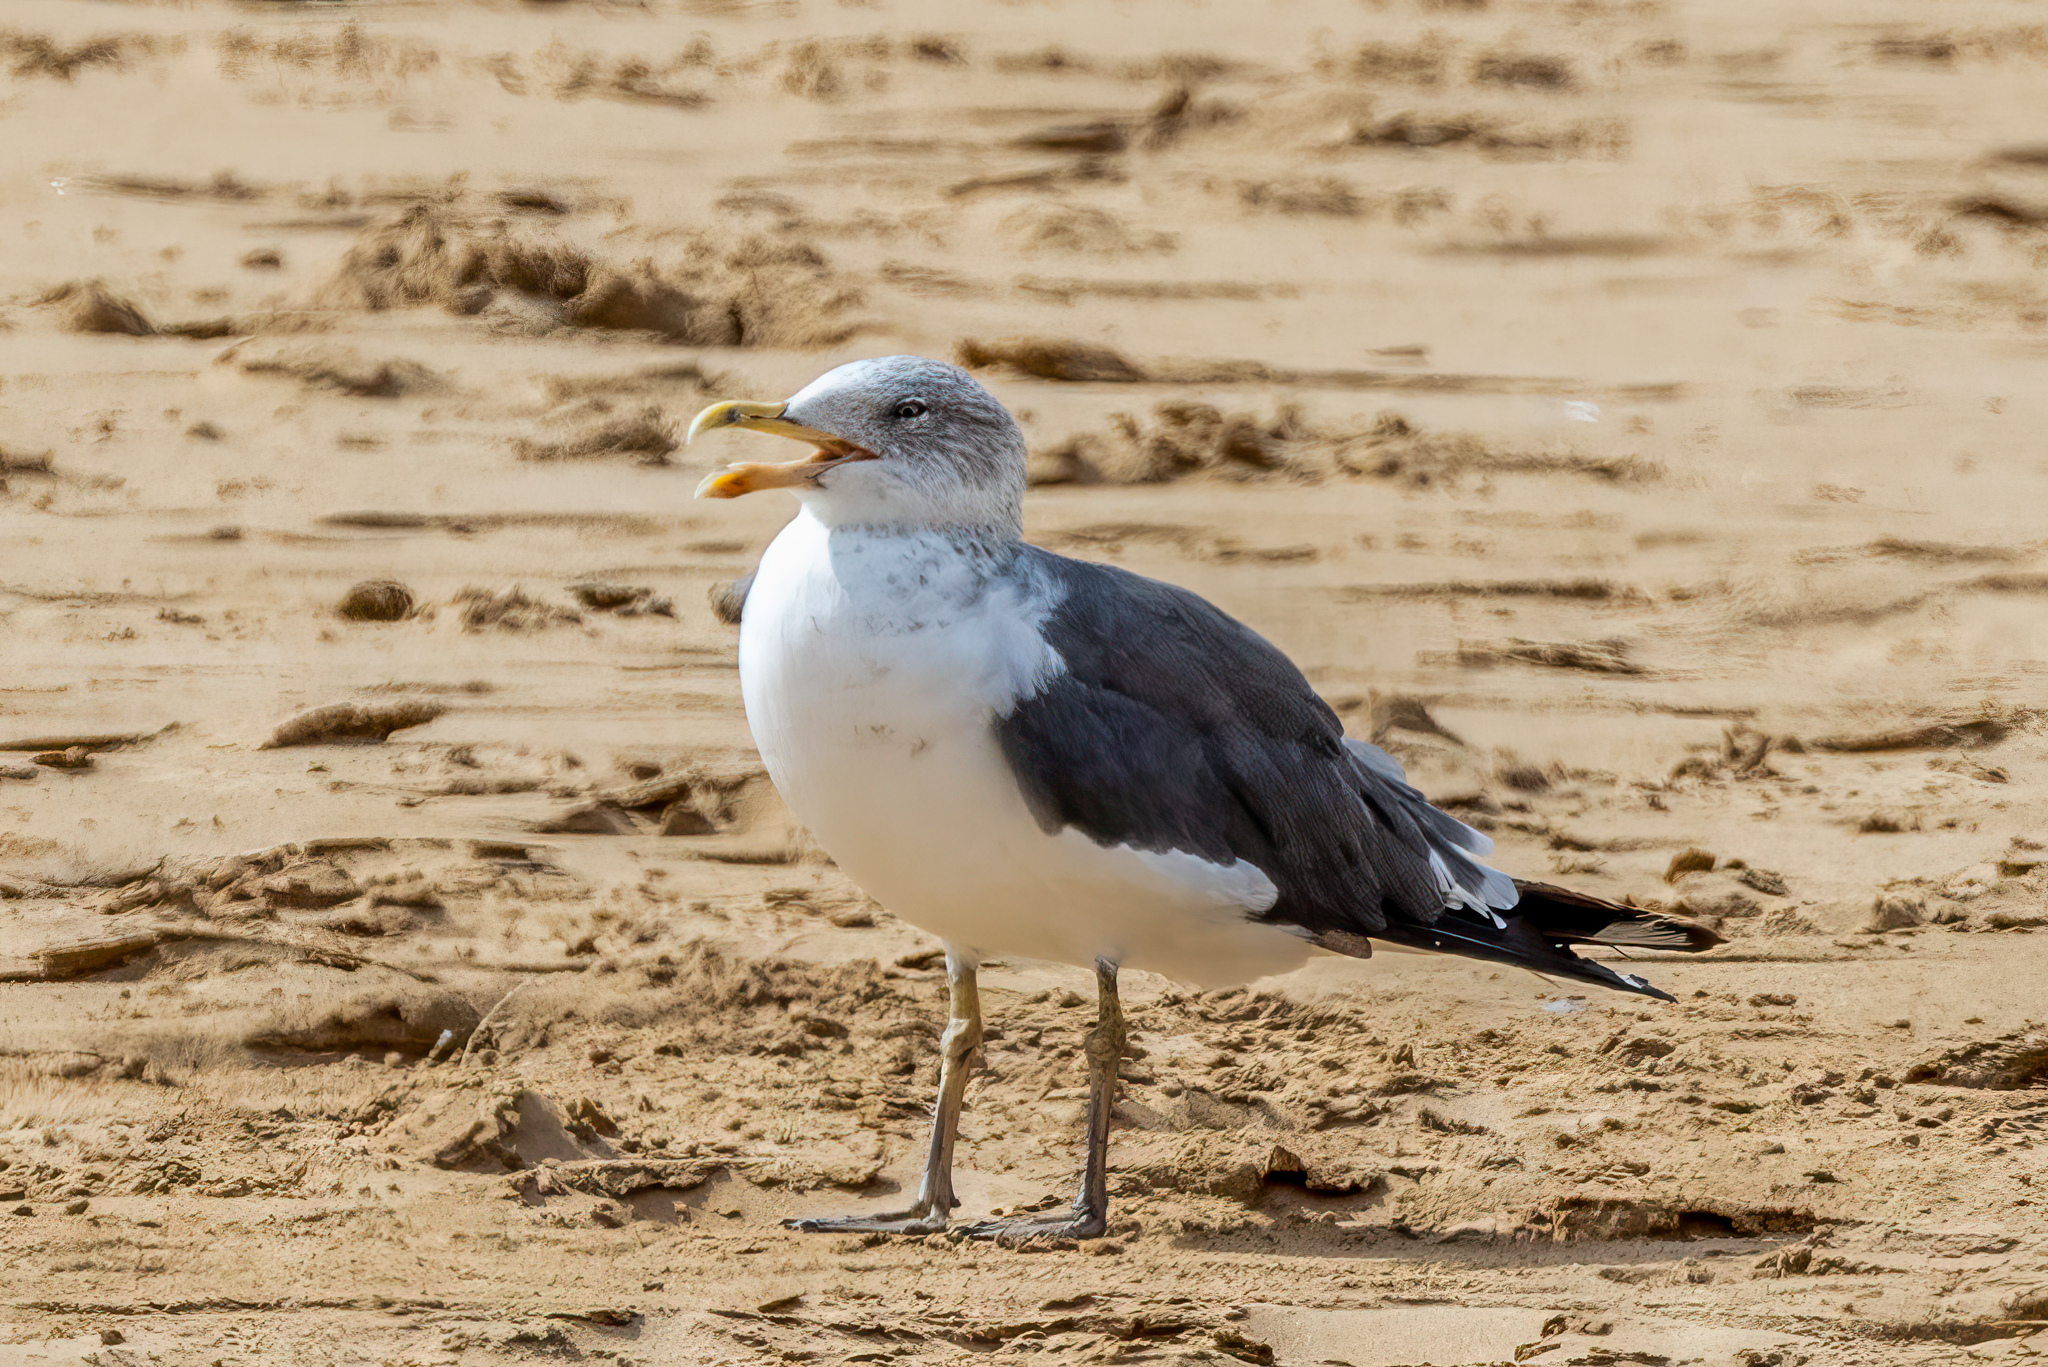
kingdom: Animalia
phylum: Chordata
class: Aves
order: Charadriiformes
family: Laridae
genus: Larus
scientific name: Larus fuscus
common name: Lesser black-backed gull
